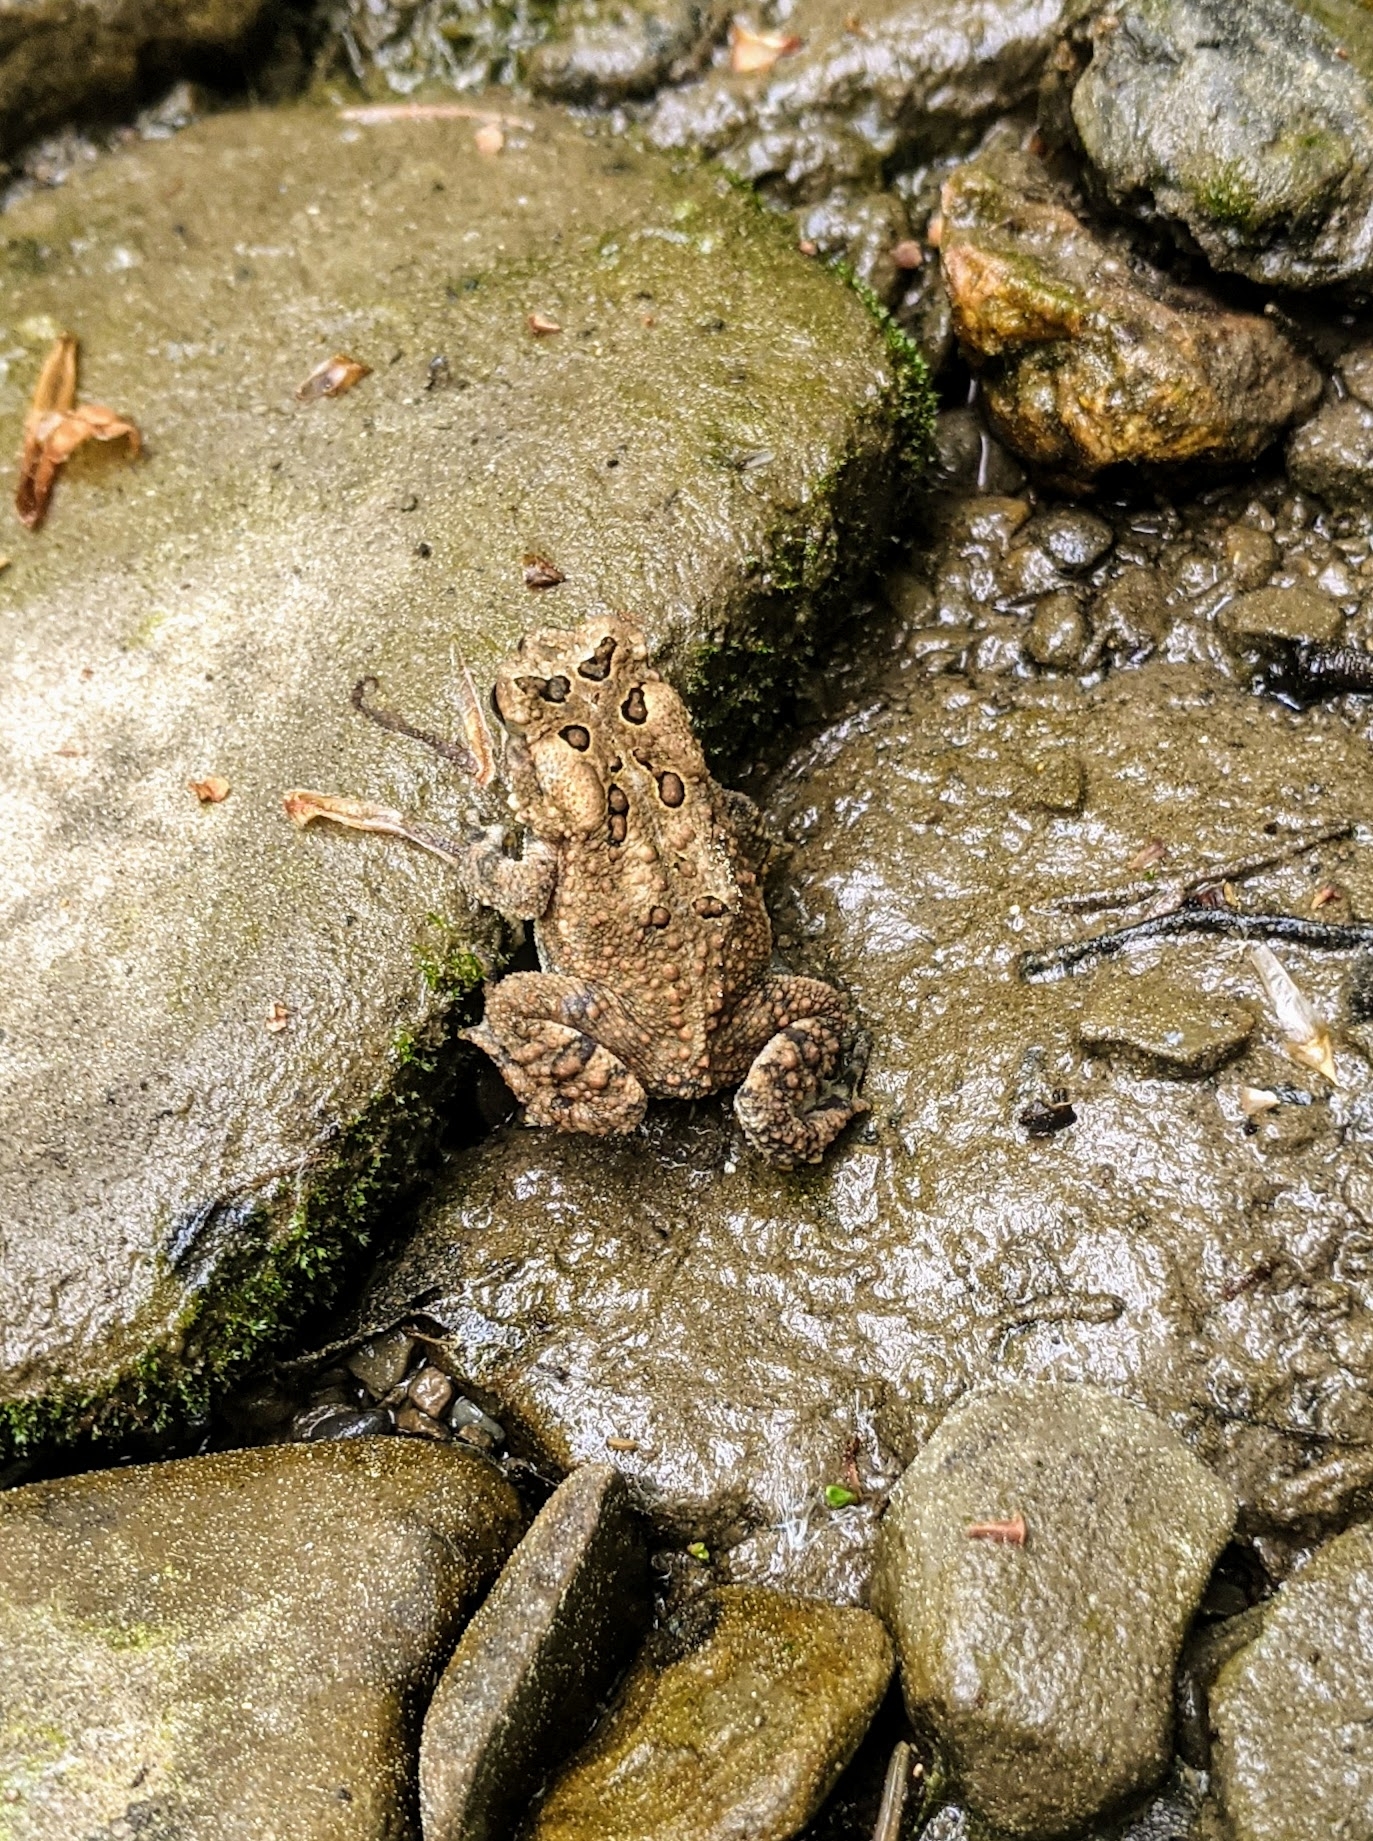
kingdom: Animalia
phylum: Chordata
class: Amphibia
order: Anura
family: Bufonidae
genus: Anaxyrus
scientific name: Anaxyrus americanus
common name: American toad
